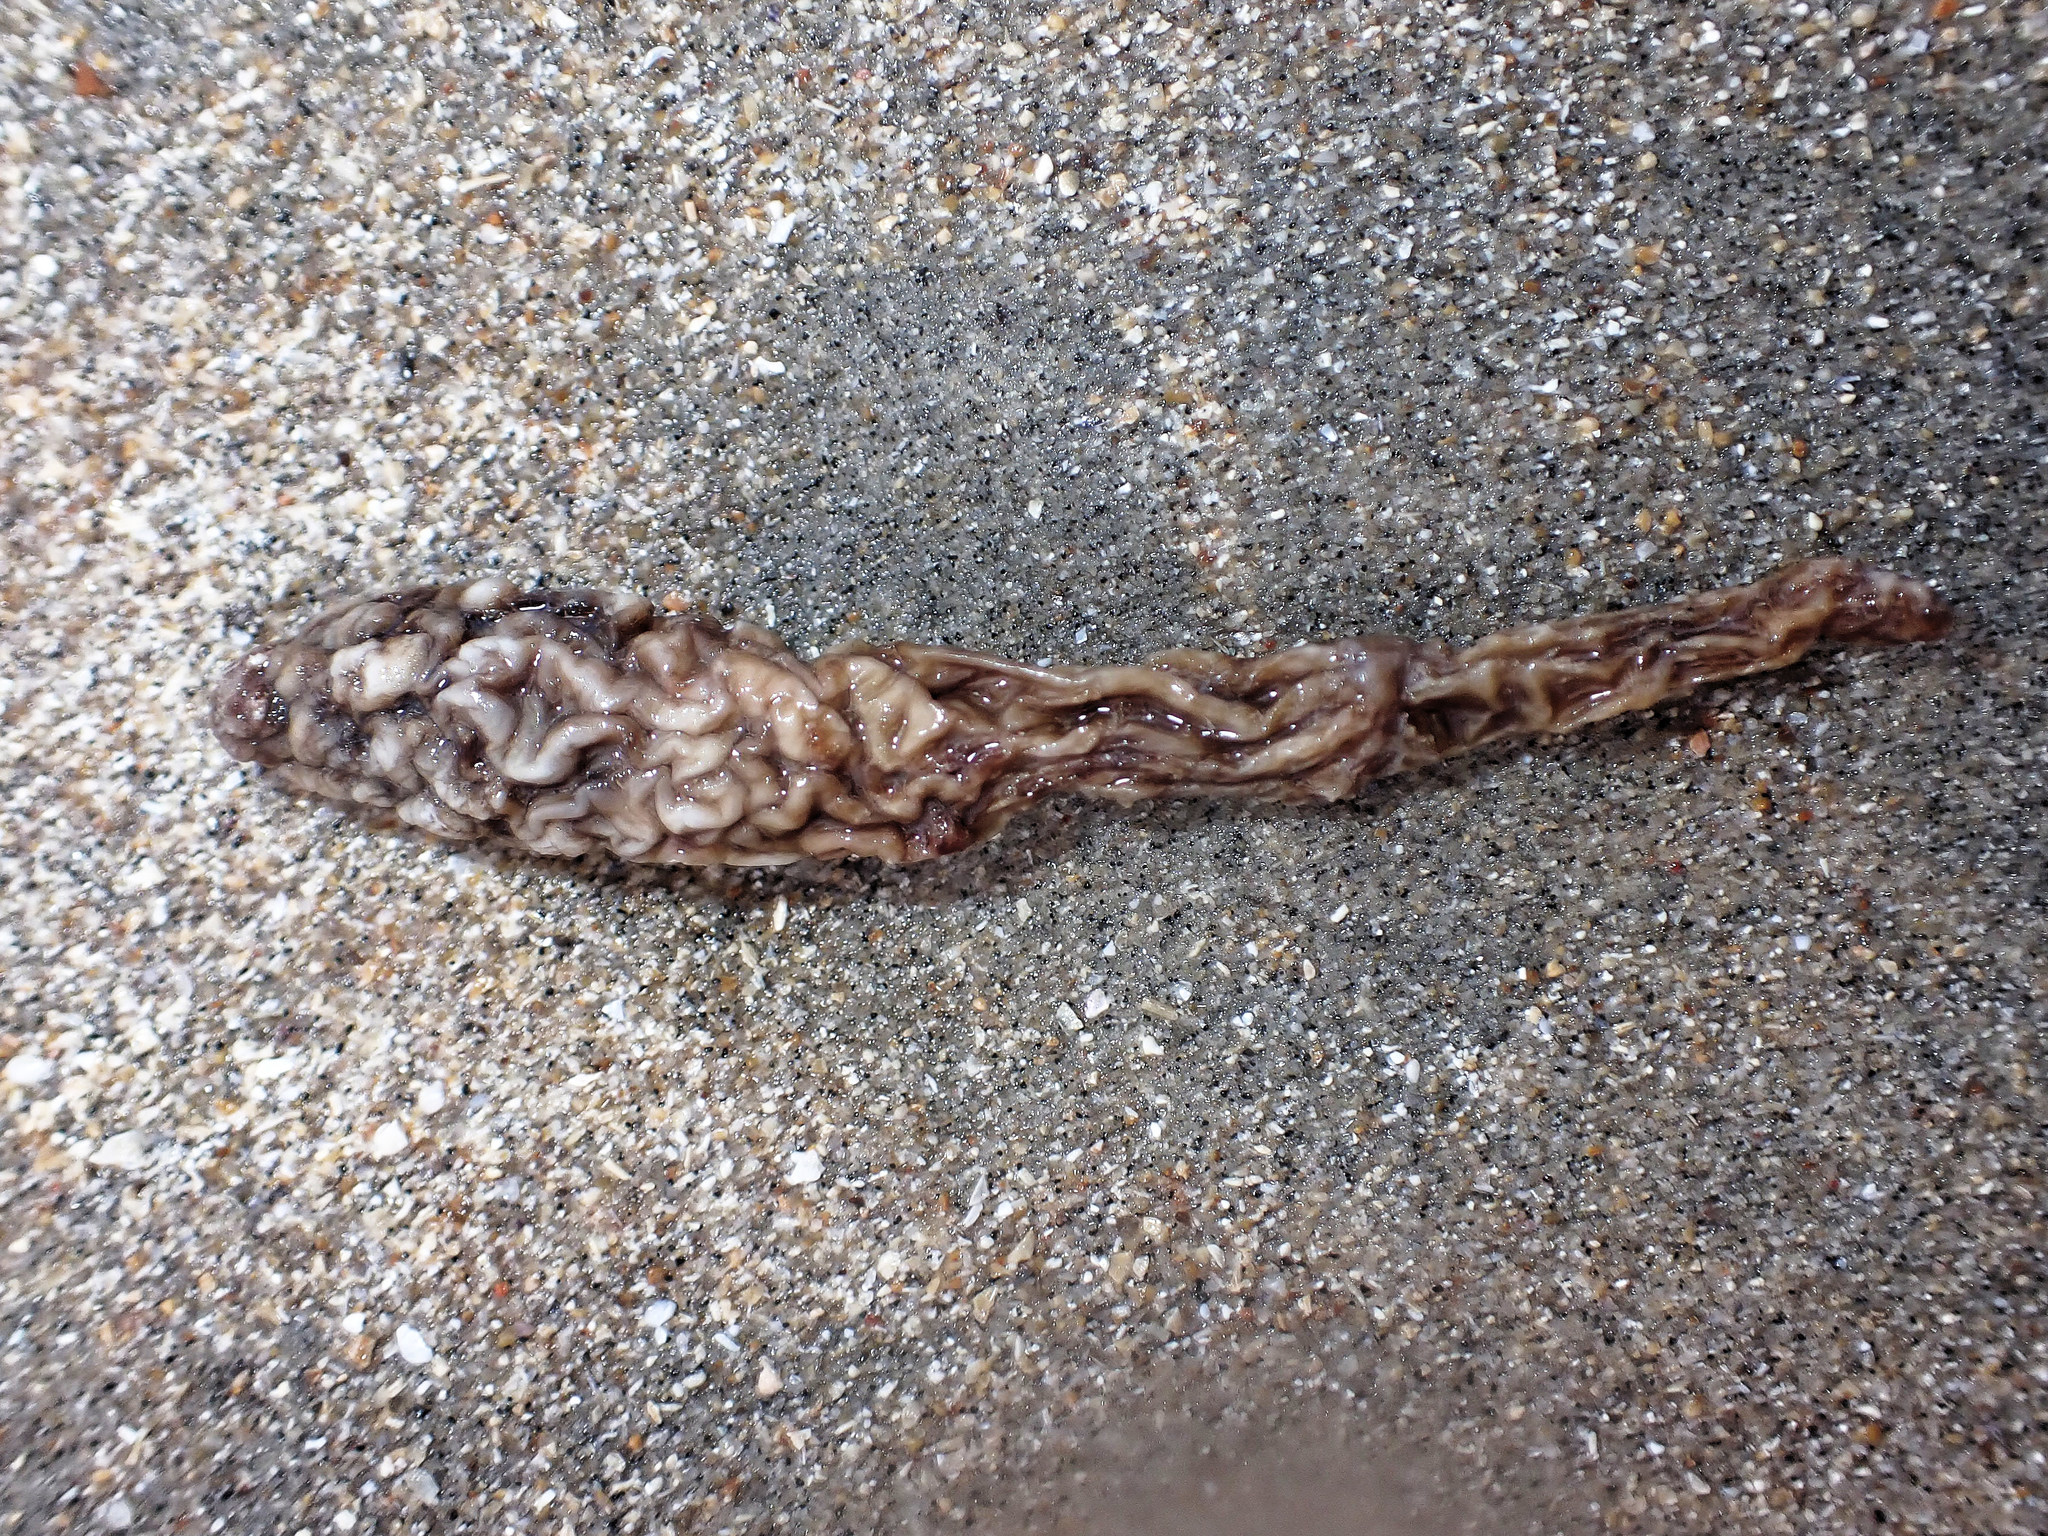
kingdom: Animalia
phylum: Chordata
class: Ascidiacea
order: Stolidobranchia
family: Styelidae
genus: Styela
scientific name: Styela clava
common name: Leathery sea squirt
